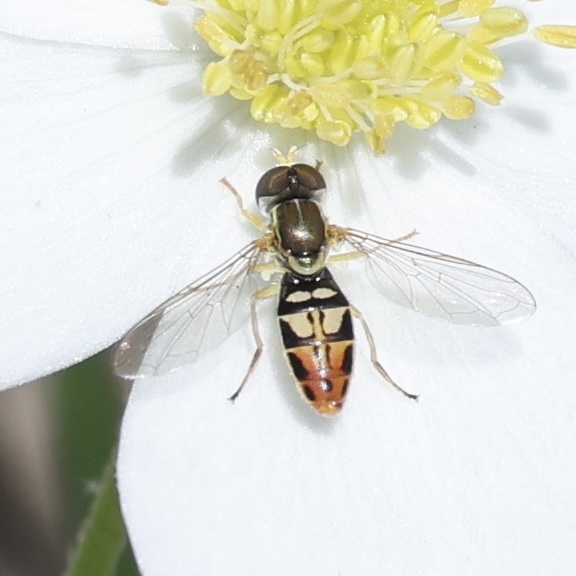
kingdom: Animalia
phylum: Arthropoda
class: Insecta
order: Diptera
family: Syrphidae
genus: Toxomerus
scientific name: Toxomerus marginatus
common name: Syrphid fly
